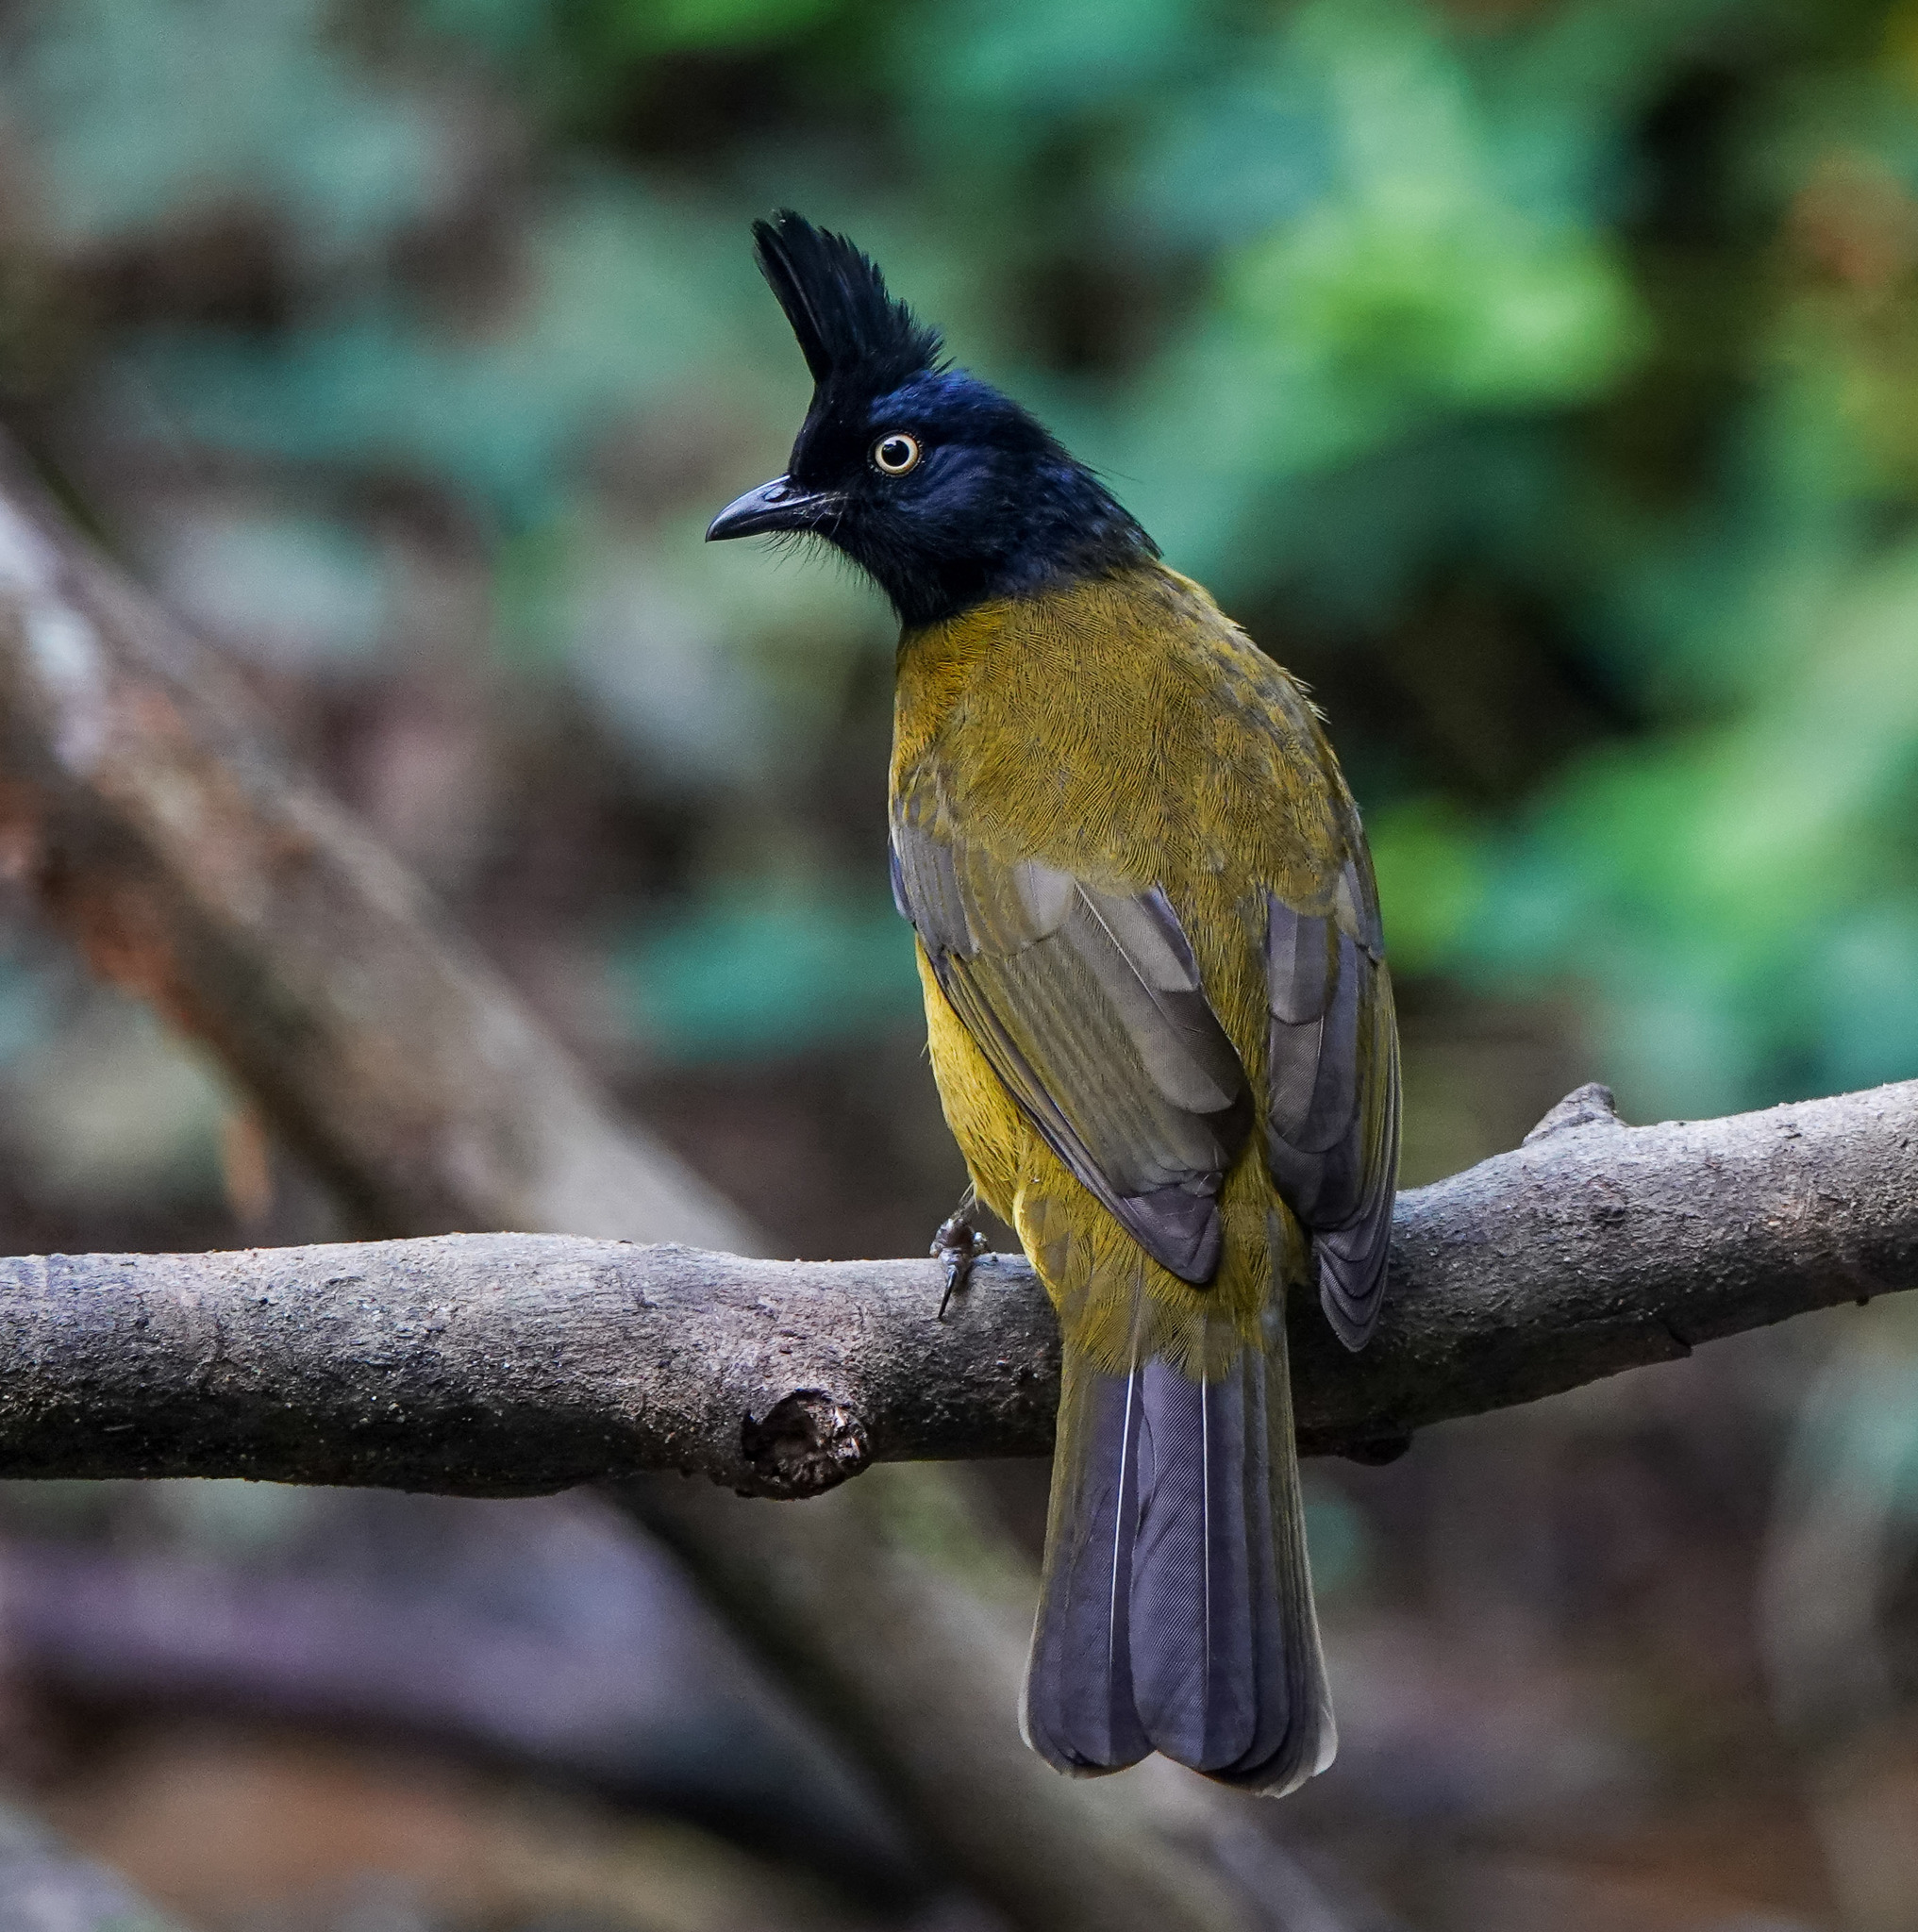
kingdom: Animalia
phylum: Chordata
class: Aves
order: Passeriformes
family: Pycnonotidae
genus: Pycnonotus
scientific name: Pycnonotus flaviventris
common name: Black-crested bulbul
